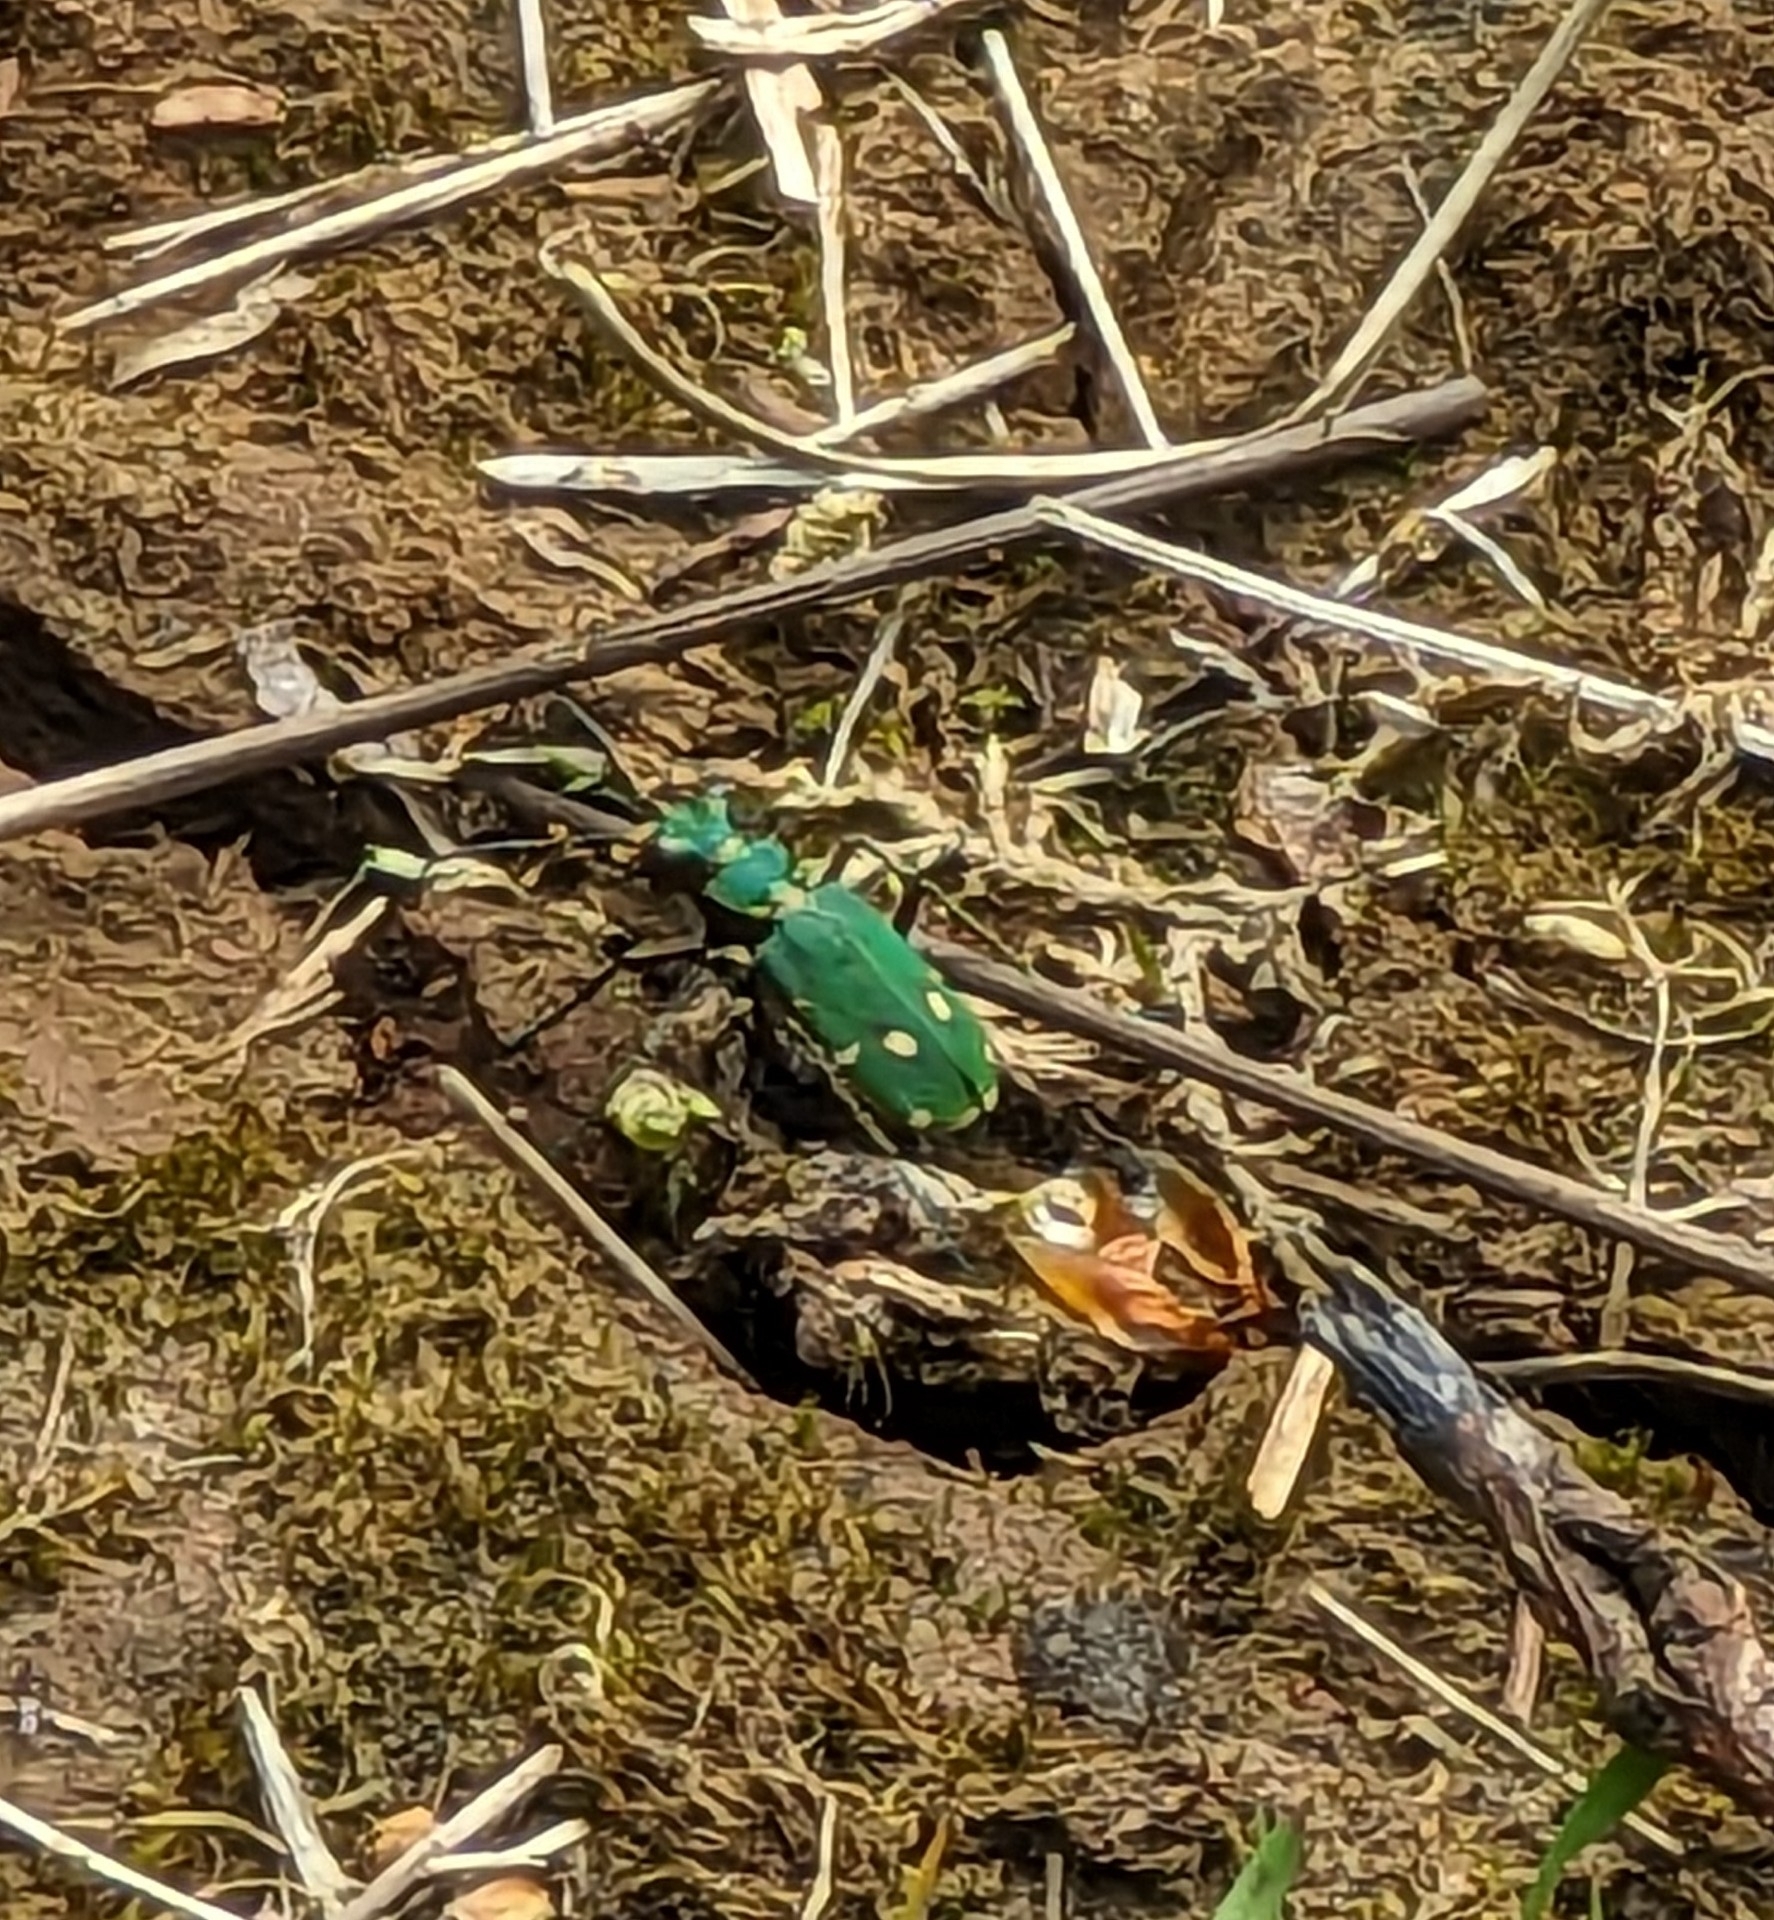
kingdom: Animalia
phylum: Arthropoda
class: Insecta
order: Coleoptera
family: Carabidae
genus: Cicindela
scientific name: Cicindela campestris
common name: Common tiger beetle
